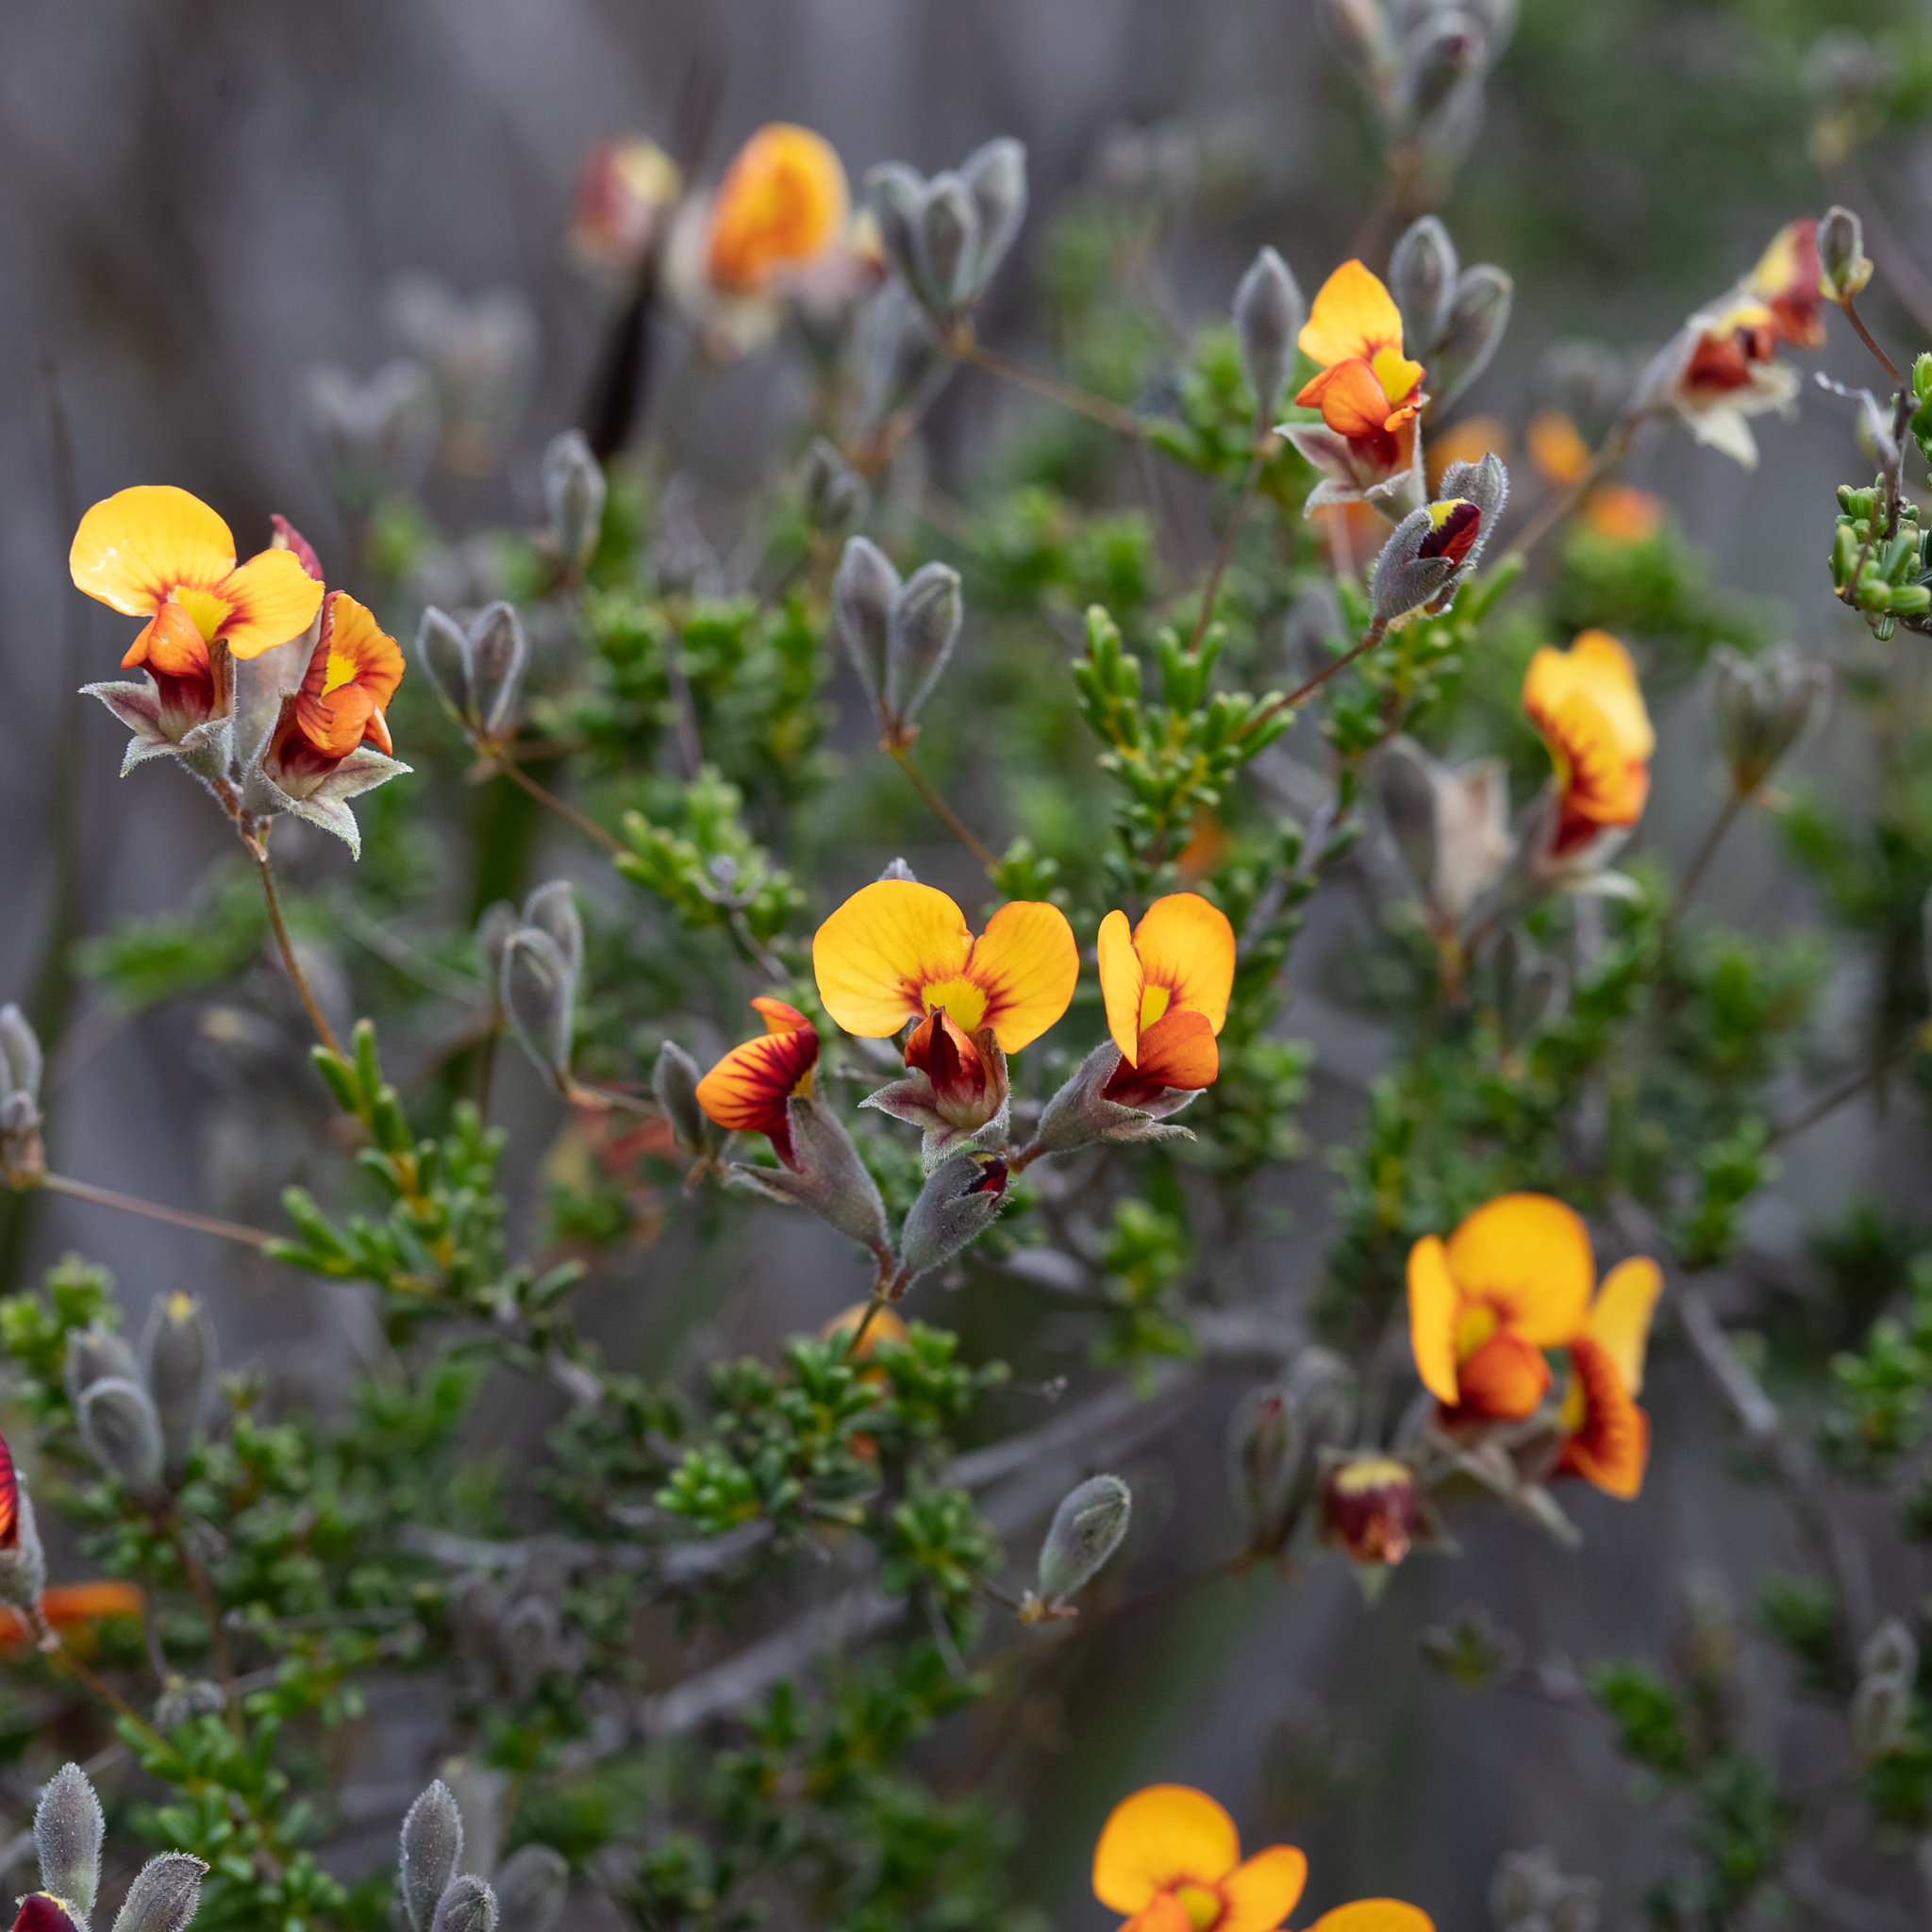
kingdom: Plantae
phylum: Tracheophyta
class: Magnoliopsida
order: Fabales
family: Fabaceae
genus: Dillwynia
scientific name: Dillwynia hispida
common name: Red parrot-pea
